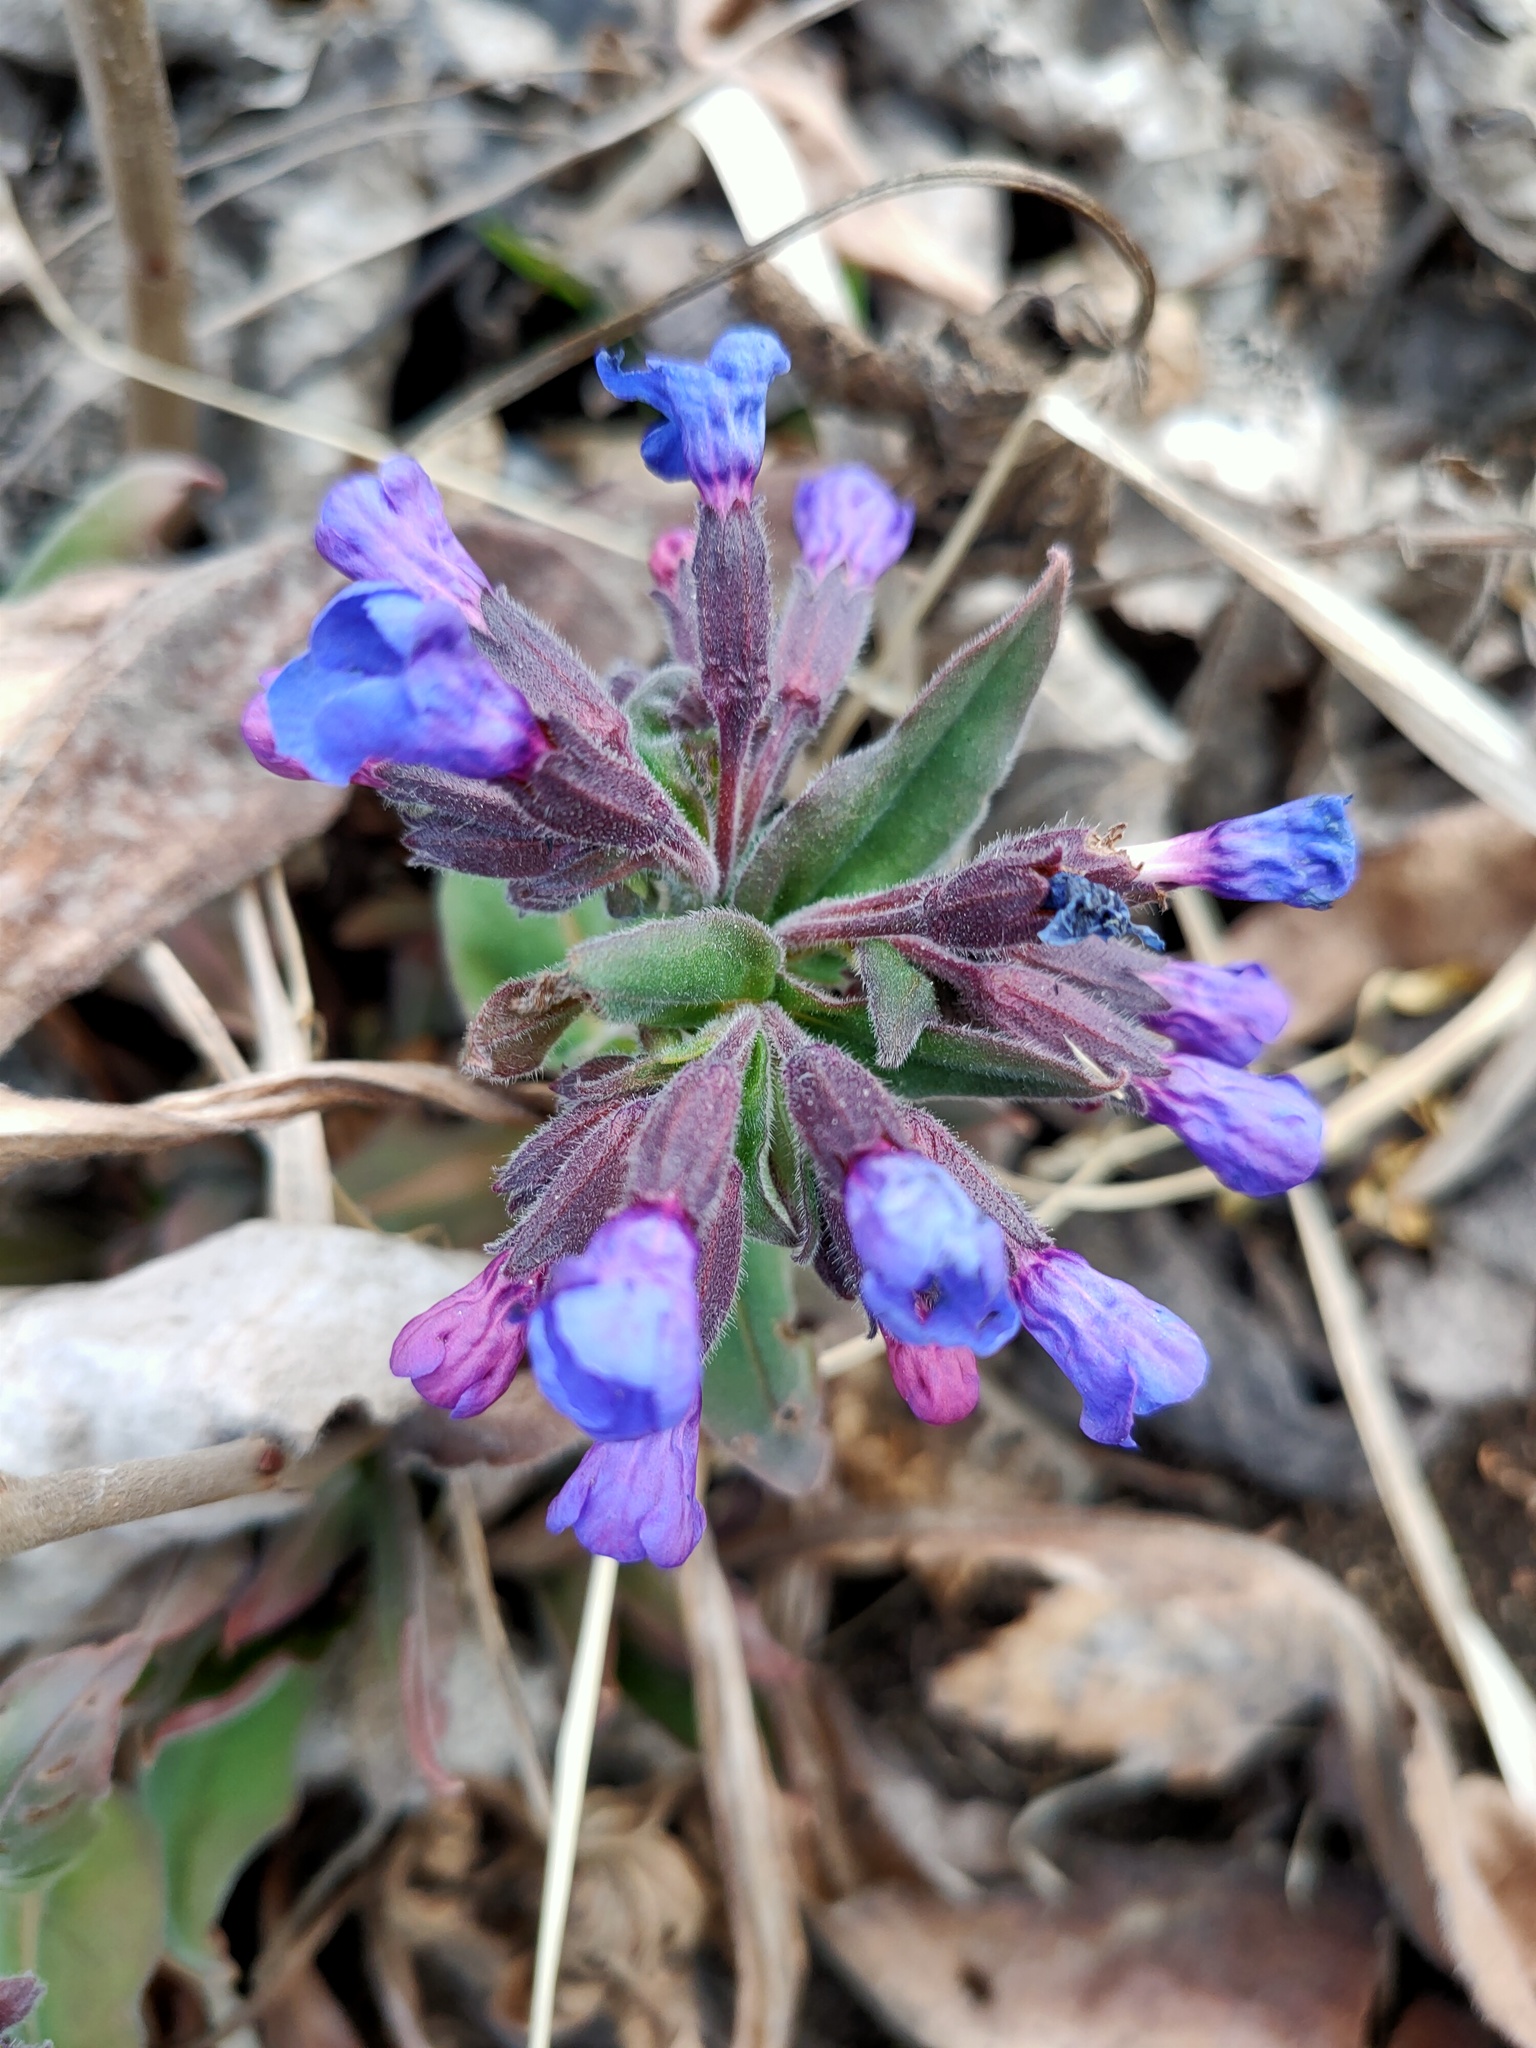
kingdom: Plantae
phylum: Tracheophyta
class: Magnoliopsida
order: Boraginales
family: Boraginaceae
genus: Pulmonaria
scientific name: Pulmonaria mollis
